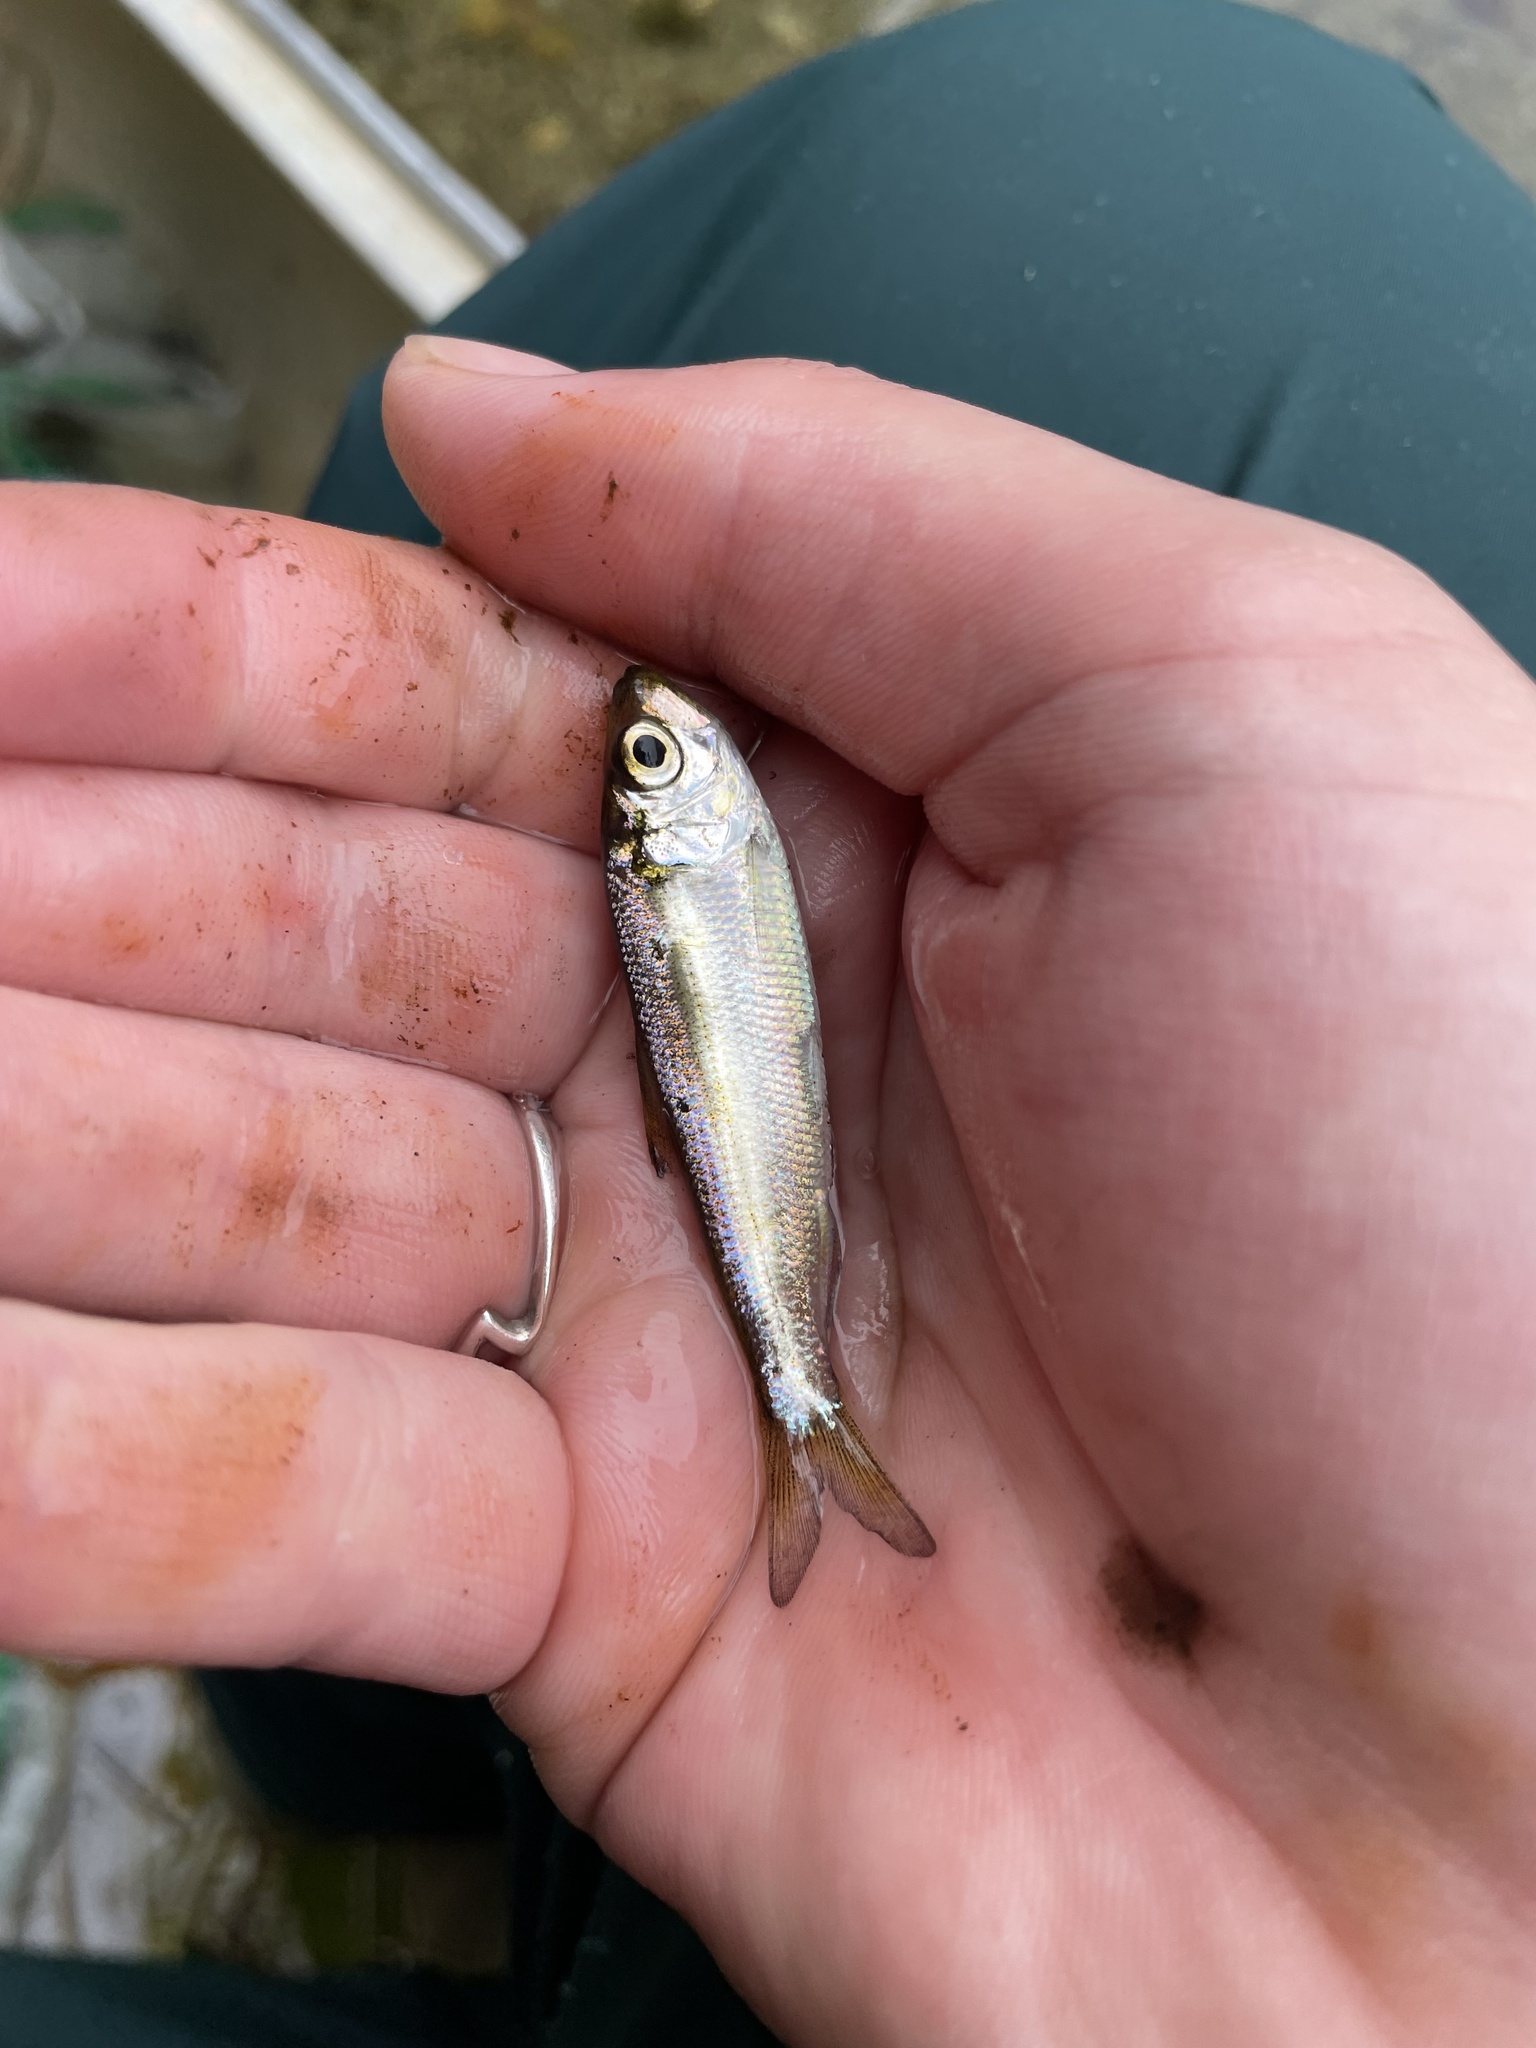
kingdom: Animalia
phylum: Chordata
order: Clupeiformes
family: Clupeidae
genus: Alosa
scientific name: Alosa pseudoharengus
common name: Alewife
